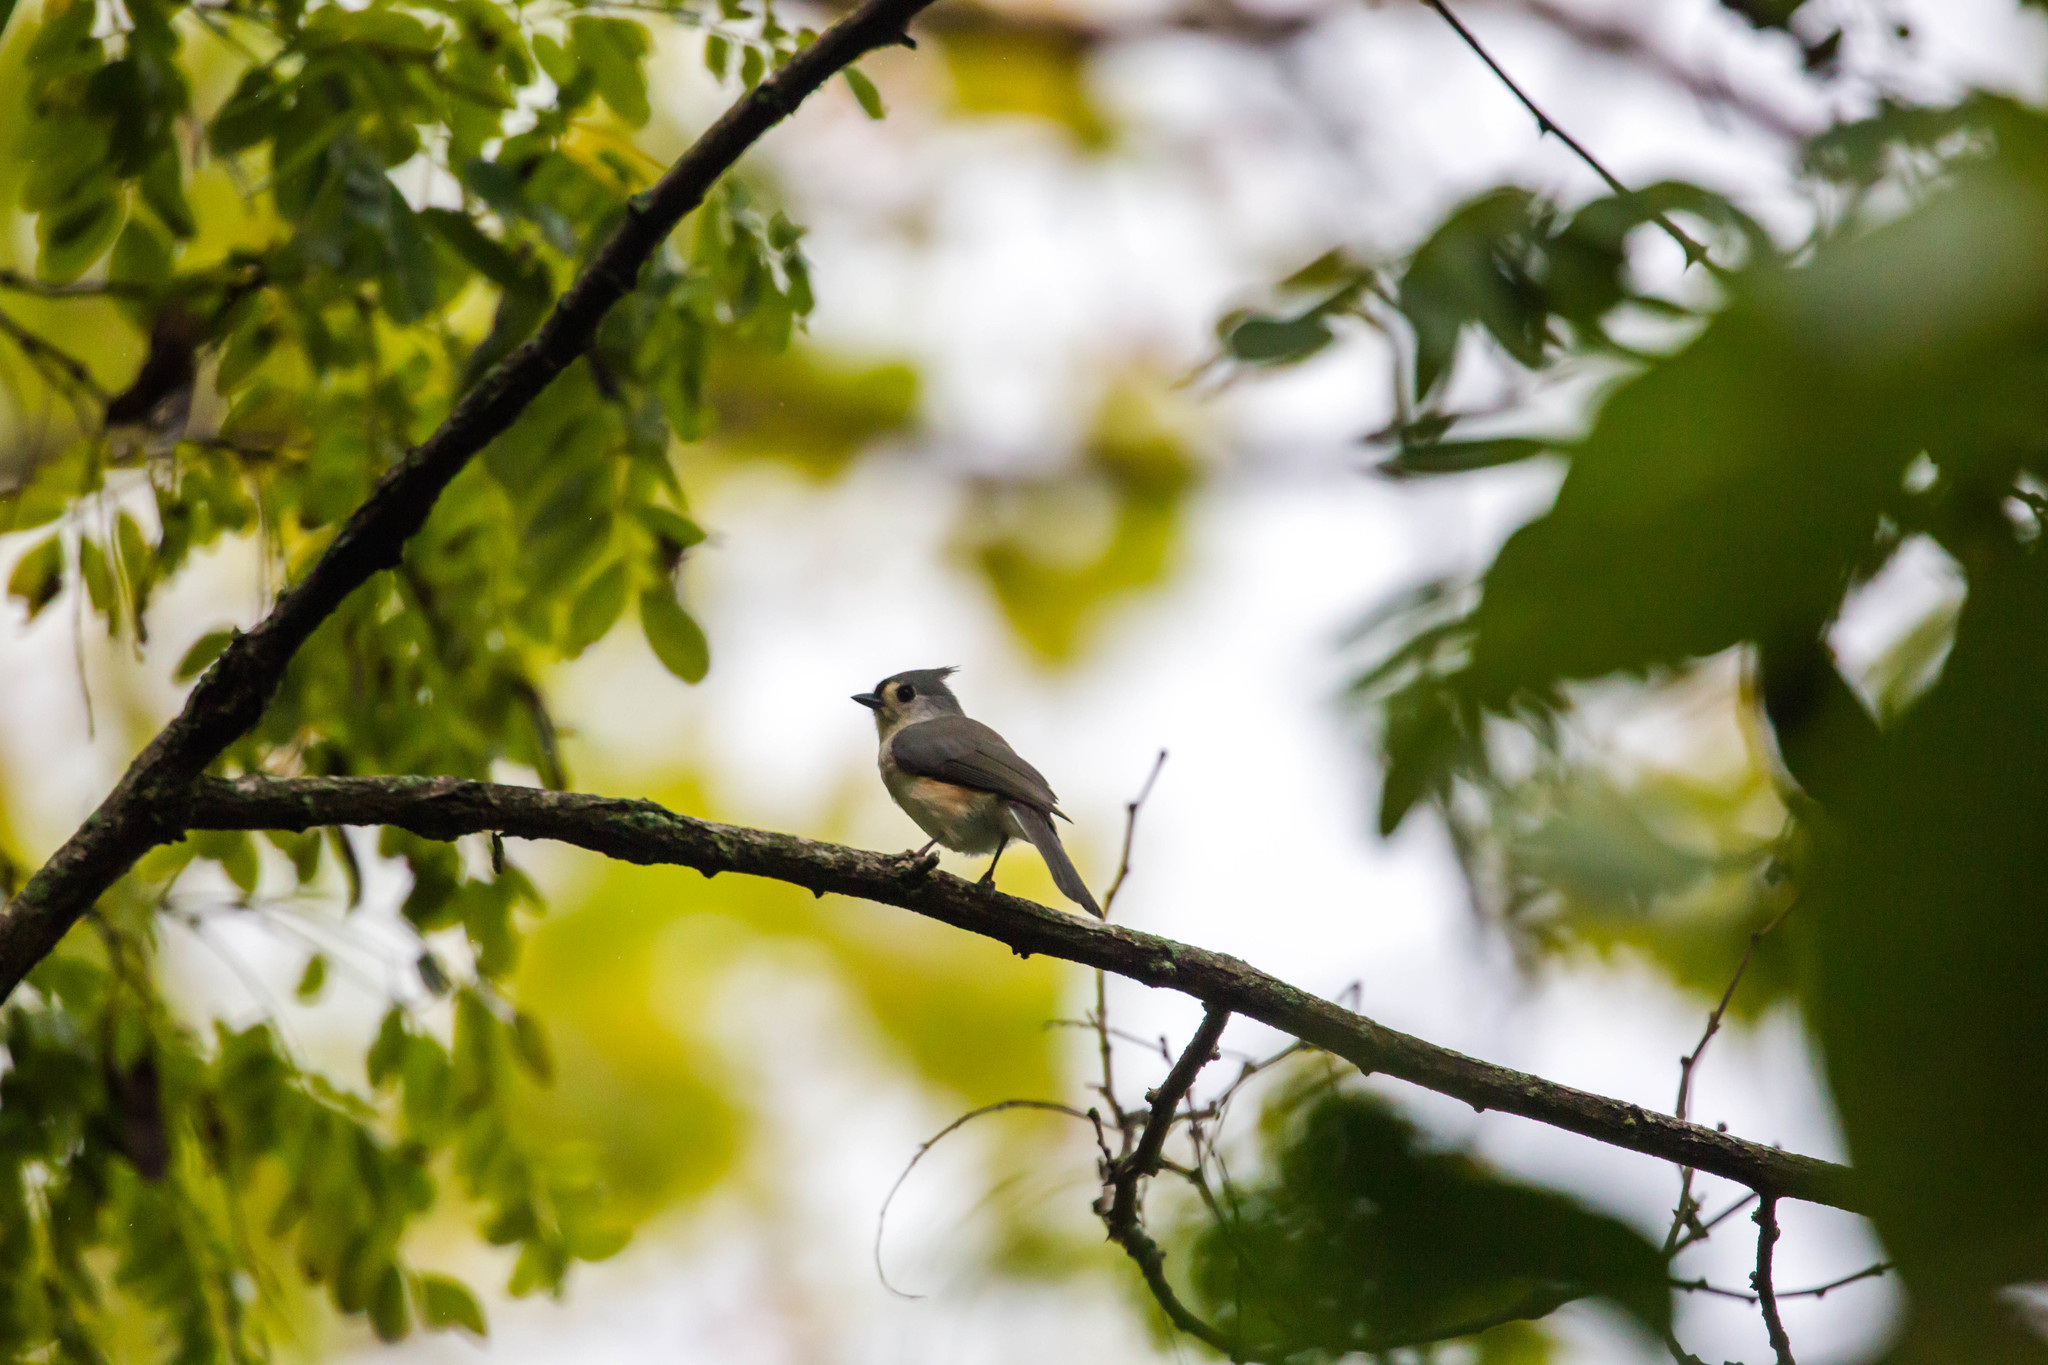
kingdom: Animalia
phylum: Chordata
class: Aves
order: Passeriformes
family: Paridae
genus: Baeolophus
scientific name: Baeolophus bicolor
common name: Tufted titmouse
